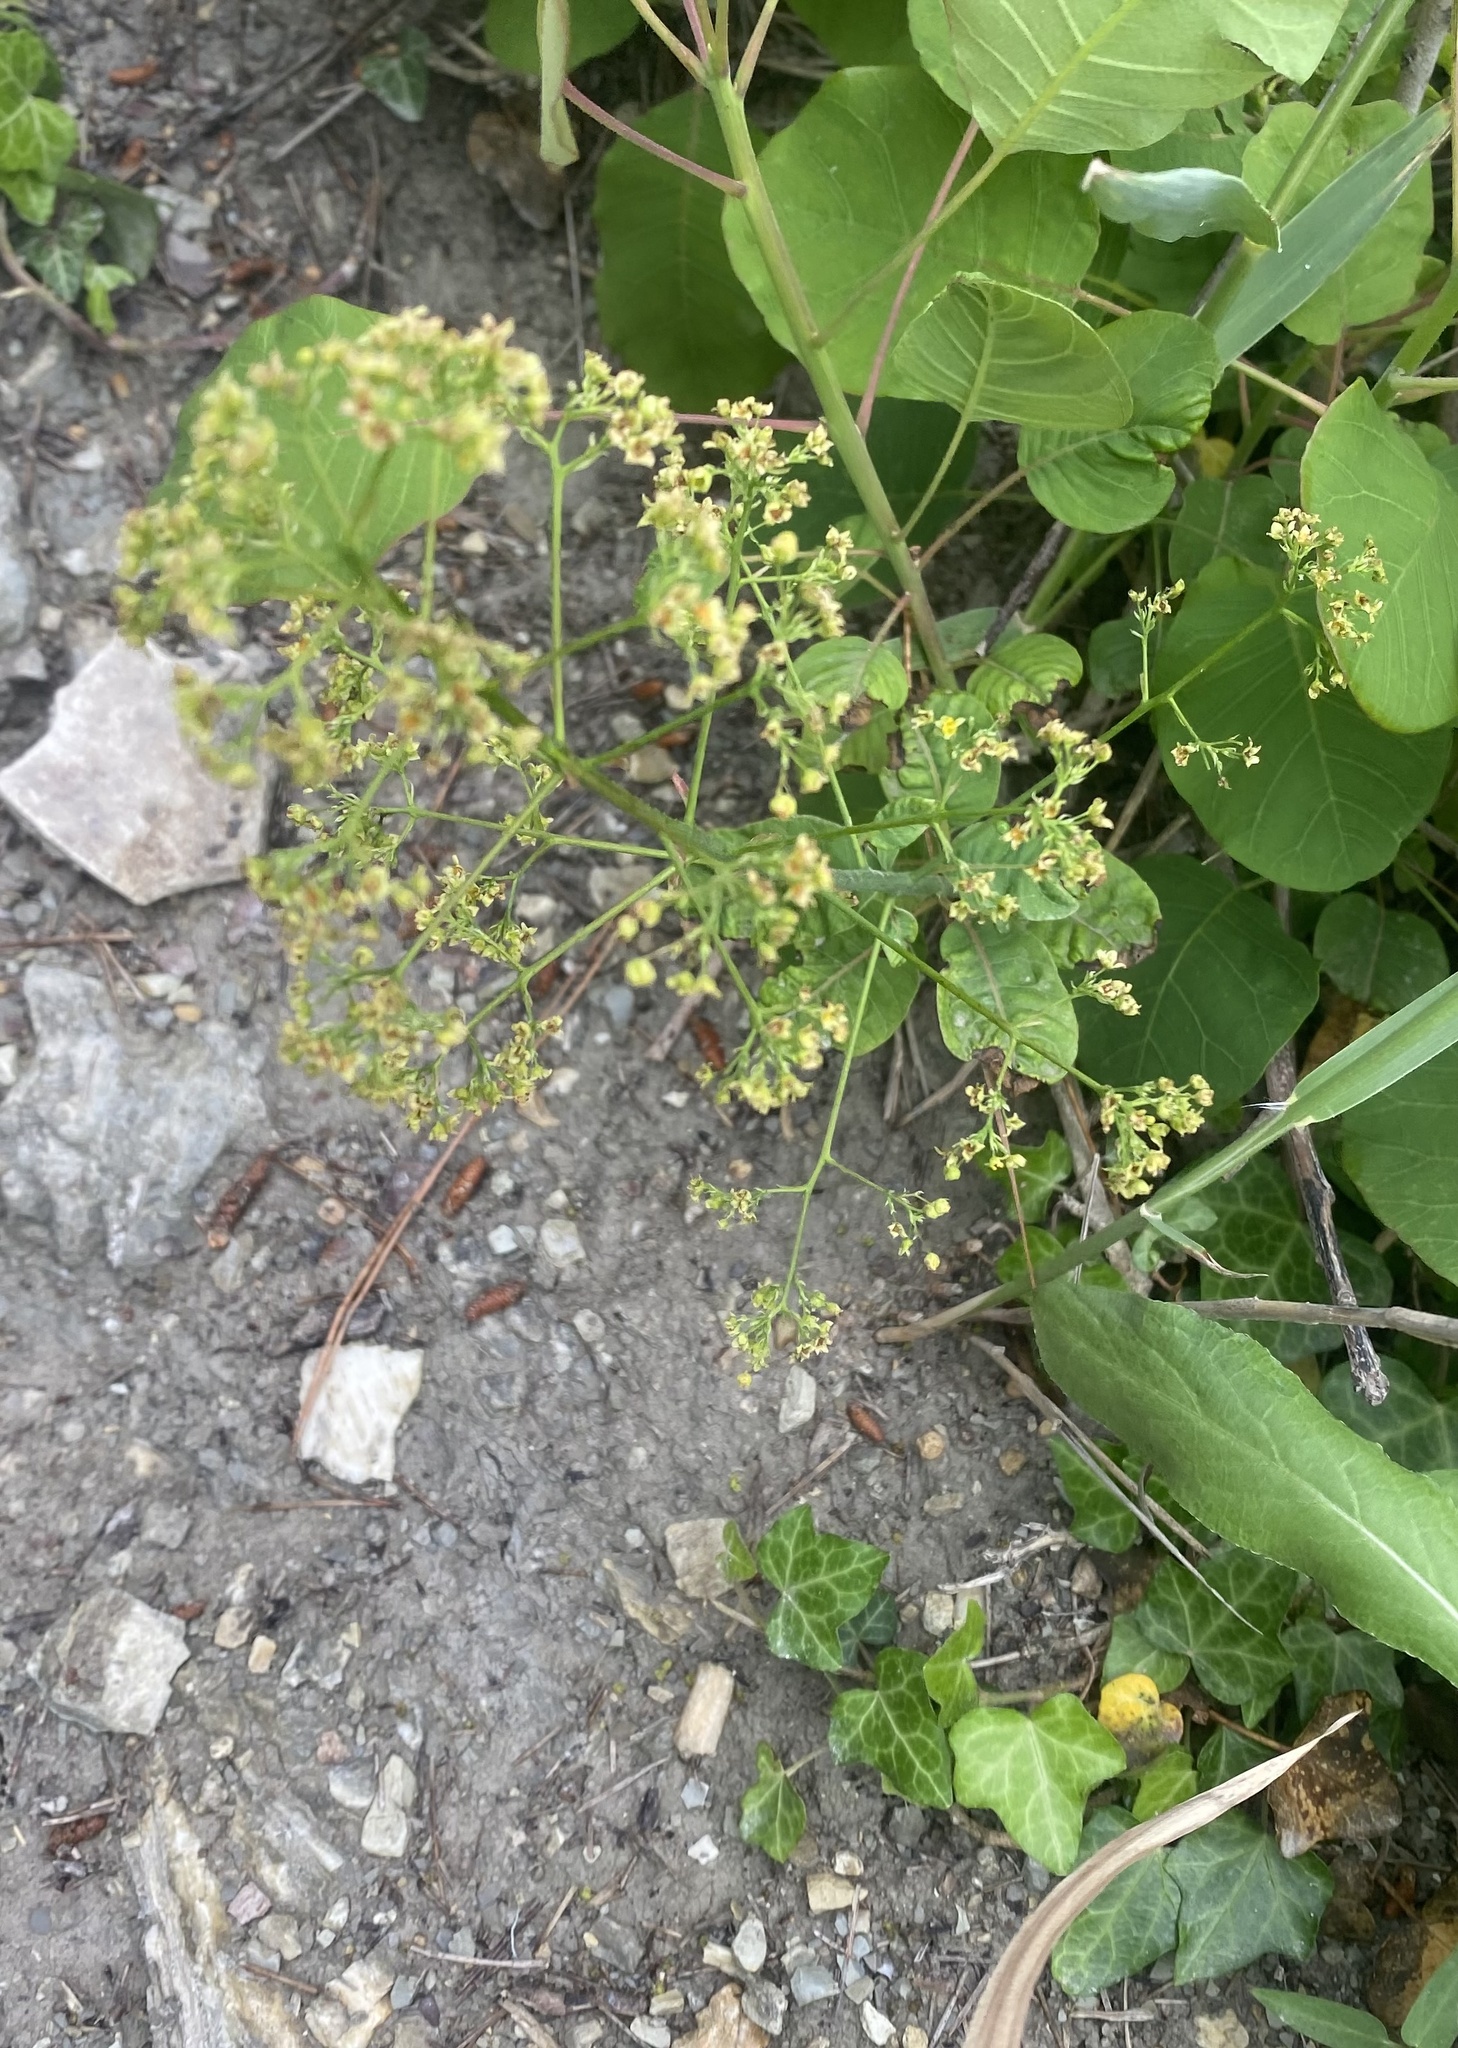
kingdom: Plantae
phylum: Tracheophyta
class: Magnoliopsida
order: Sapindales
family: Anacardiaceae
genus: Cotinus
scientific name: Cotinus coggygria
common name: Smoke-tree
